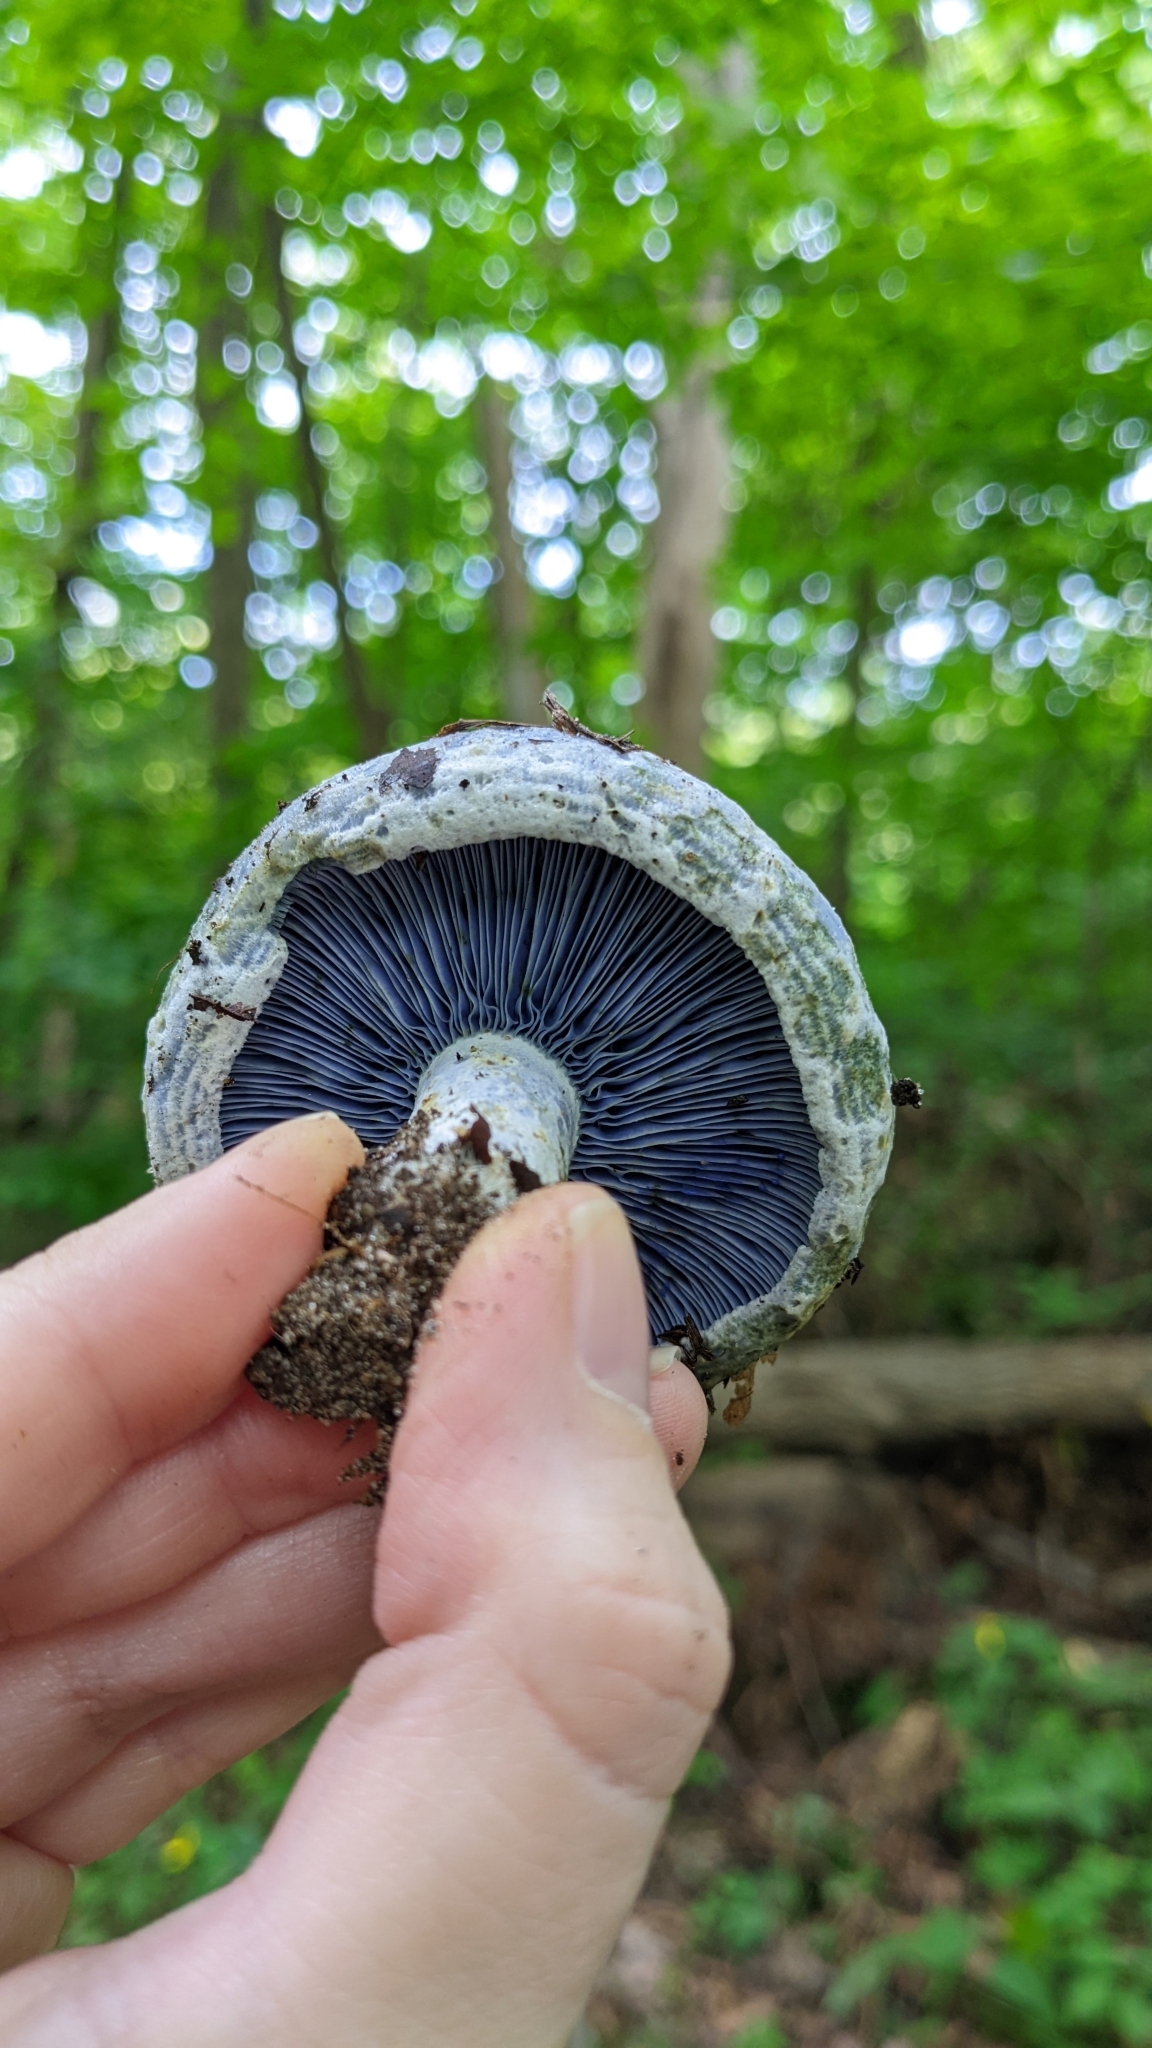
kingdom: Fungi
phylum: Basidiomycota
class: Agaricomycetes
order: Russulales
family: Russulaceae
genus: Lactarius
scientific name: Lactarius indigo
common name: Indigo milk cap
